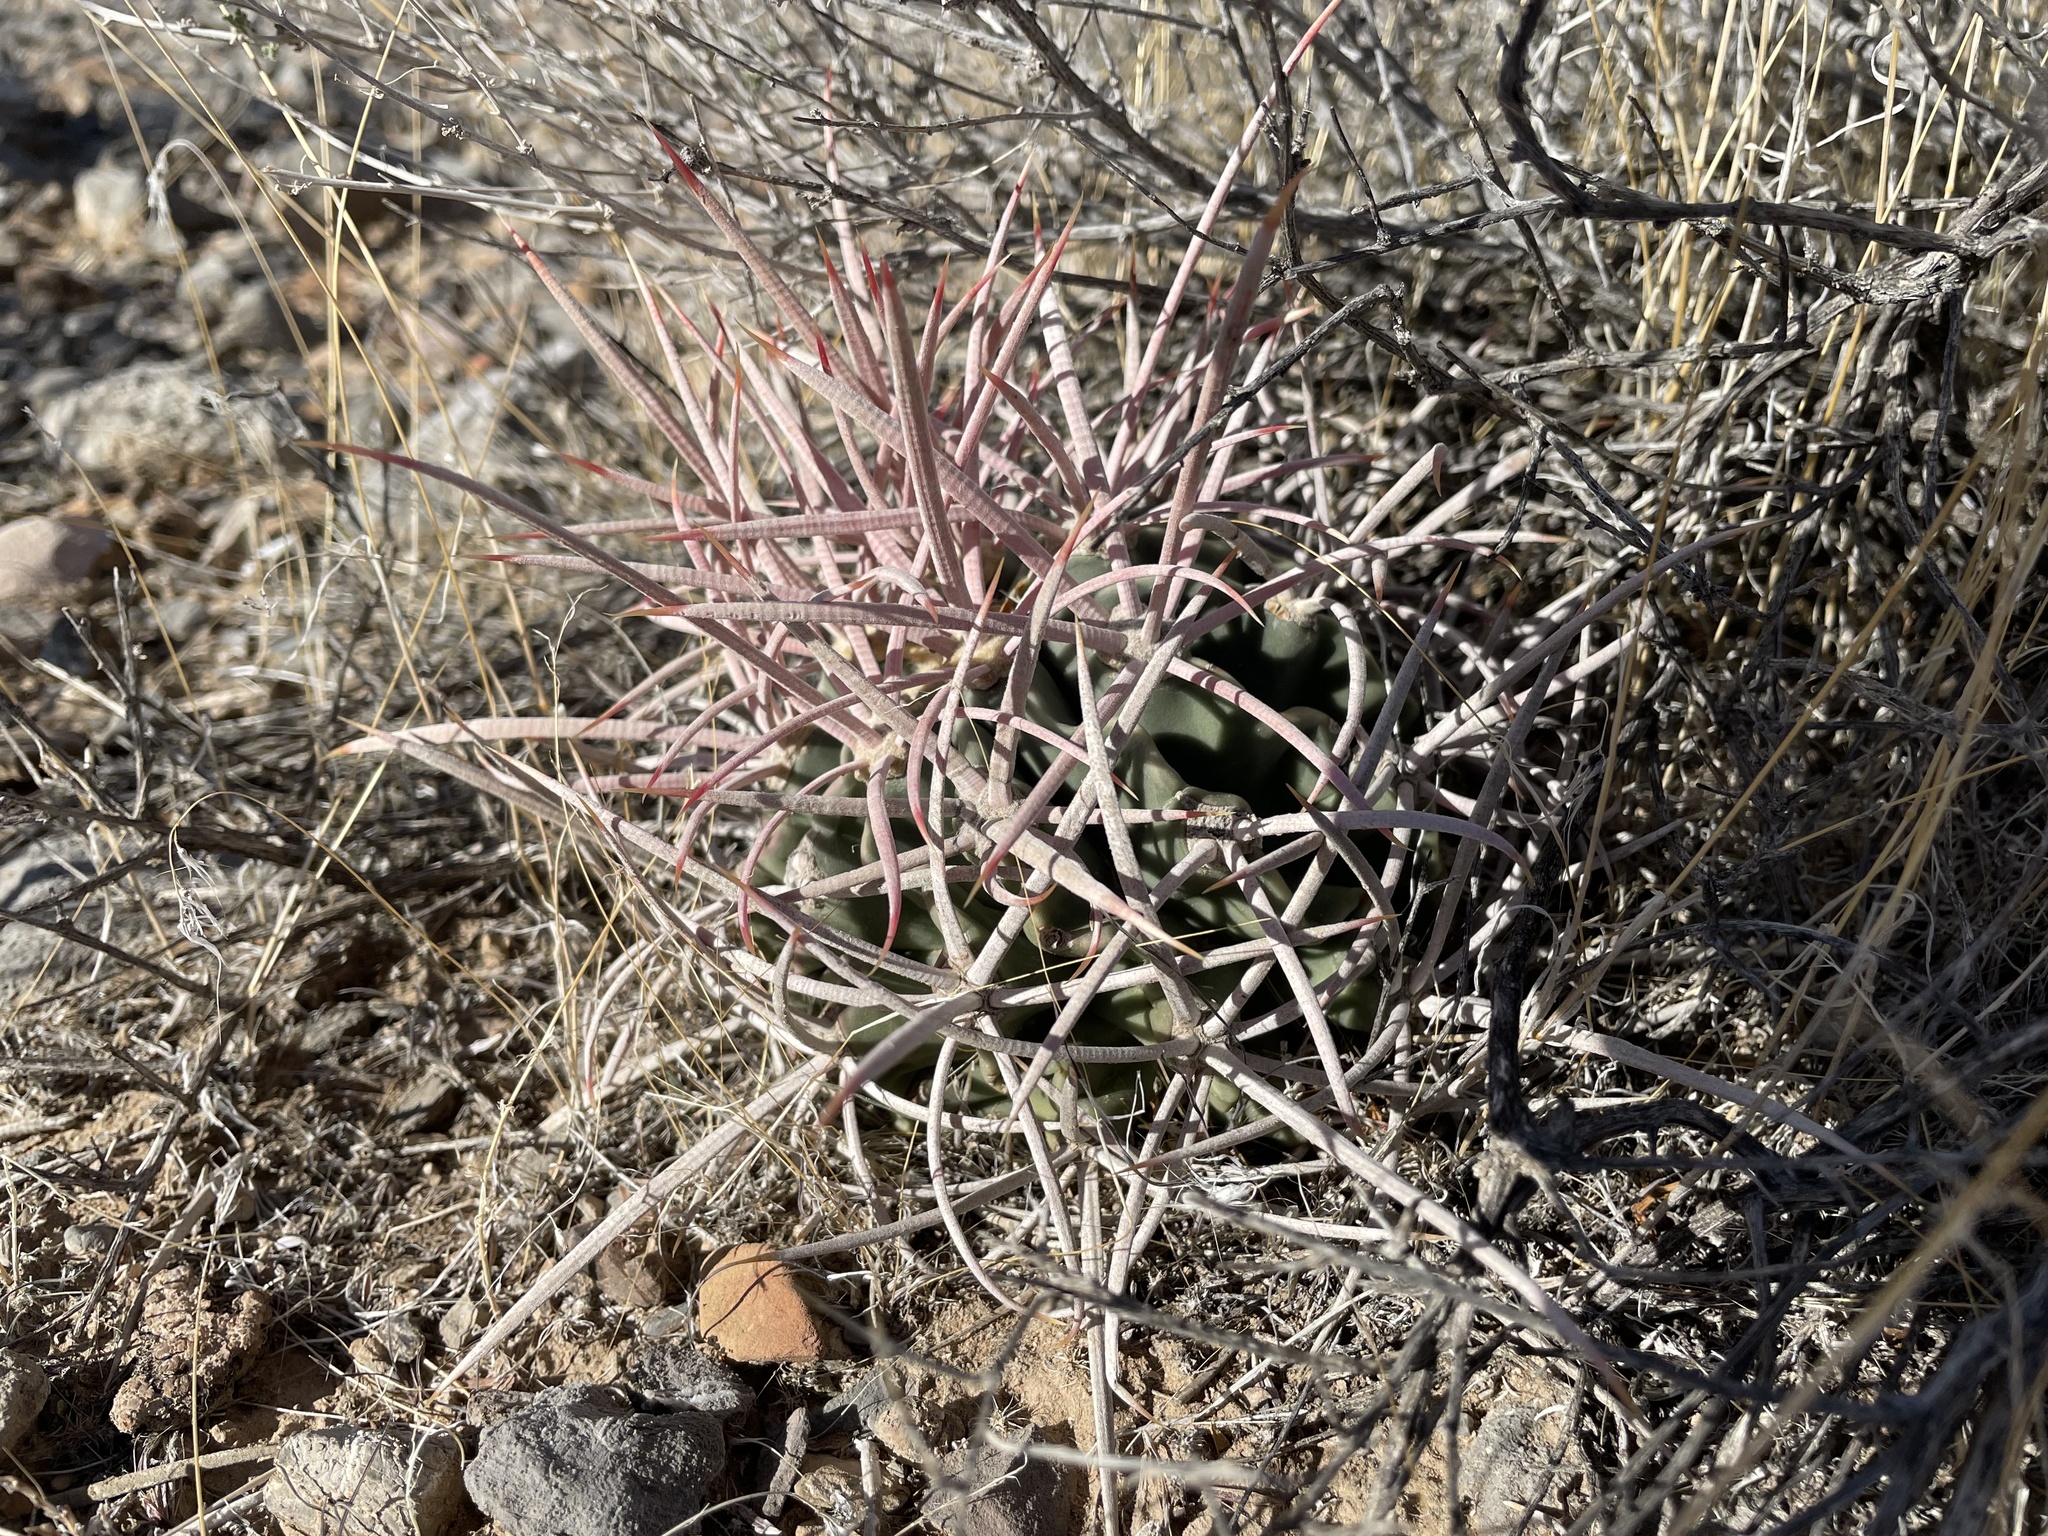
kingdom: Plantae
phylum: Tracheophyta
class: Magnoliopsida
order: Caryophyllales
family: Cactaceae
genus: Echinocactus
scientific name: Echinocactus polycephalus
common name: Cottontop cactus
